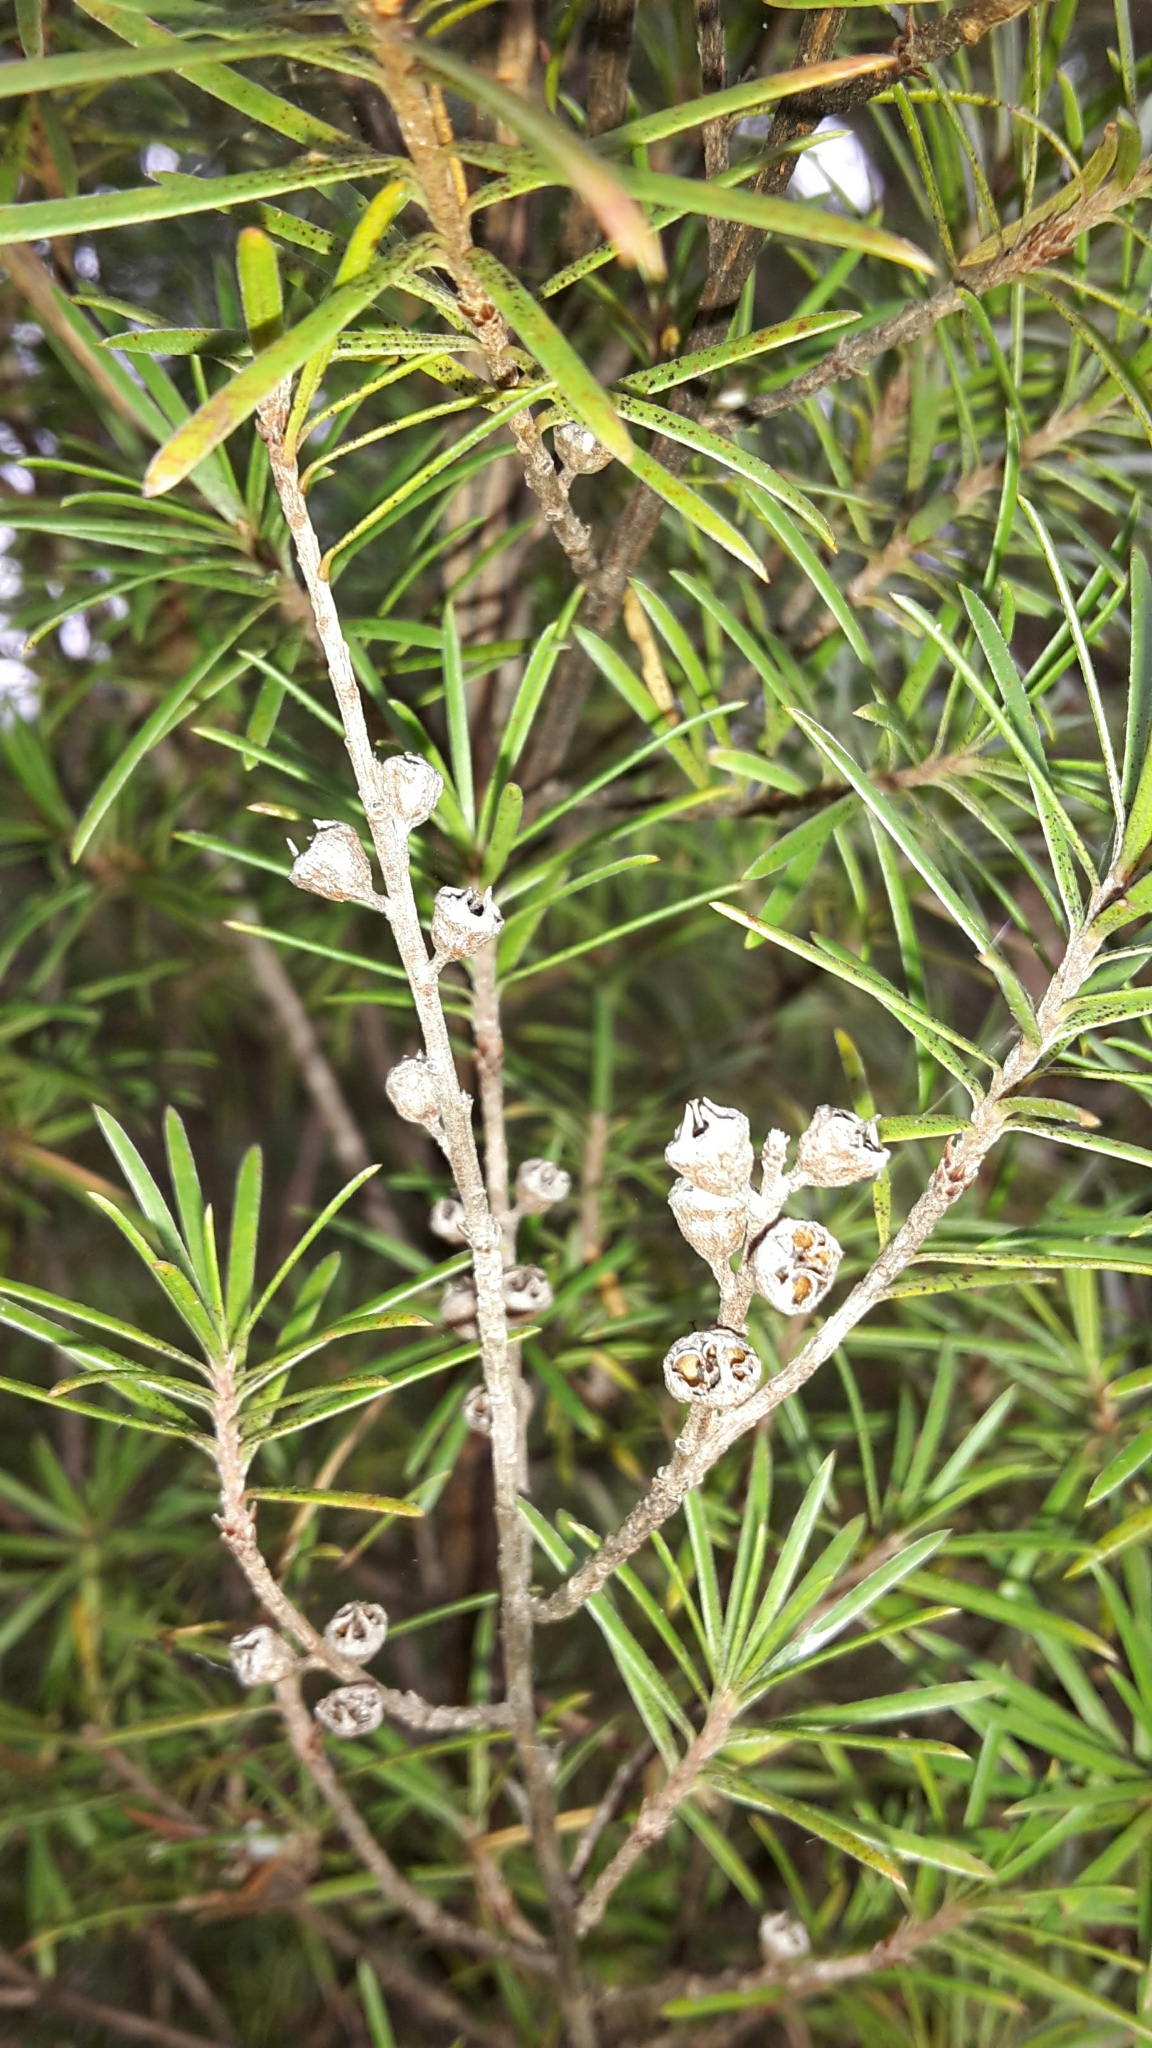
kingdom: Plantae
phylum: Tracheophyta
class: Magnoliopsida
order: Myrtales
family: Myrtaceae
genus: Kunzea
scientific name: Kunzea linearis
